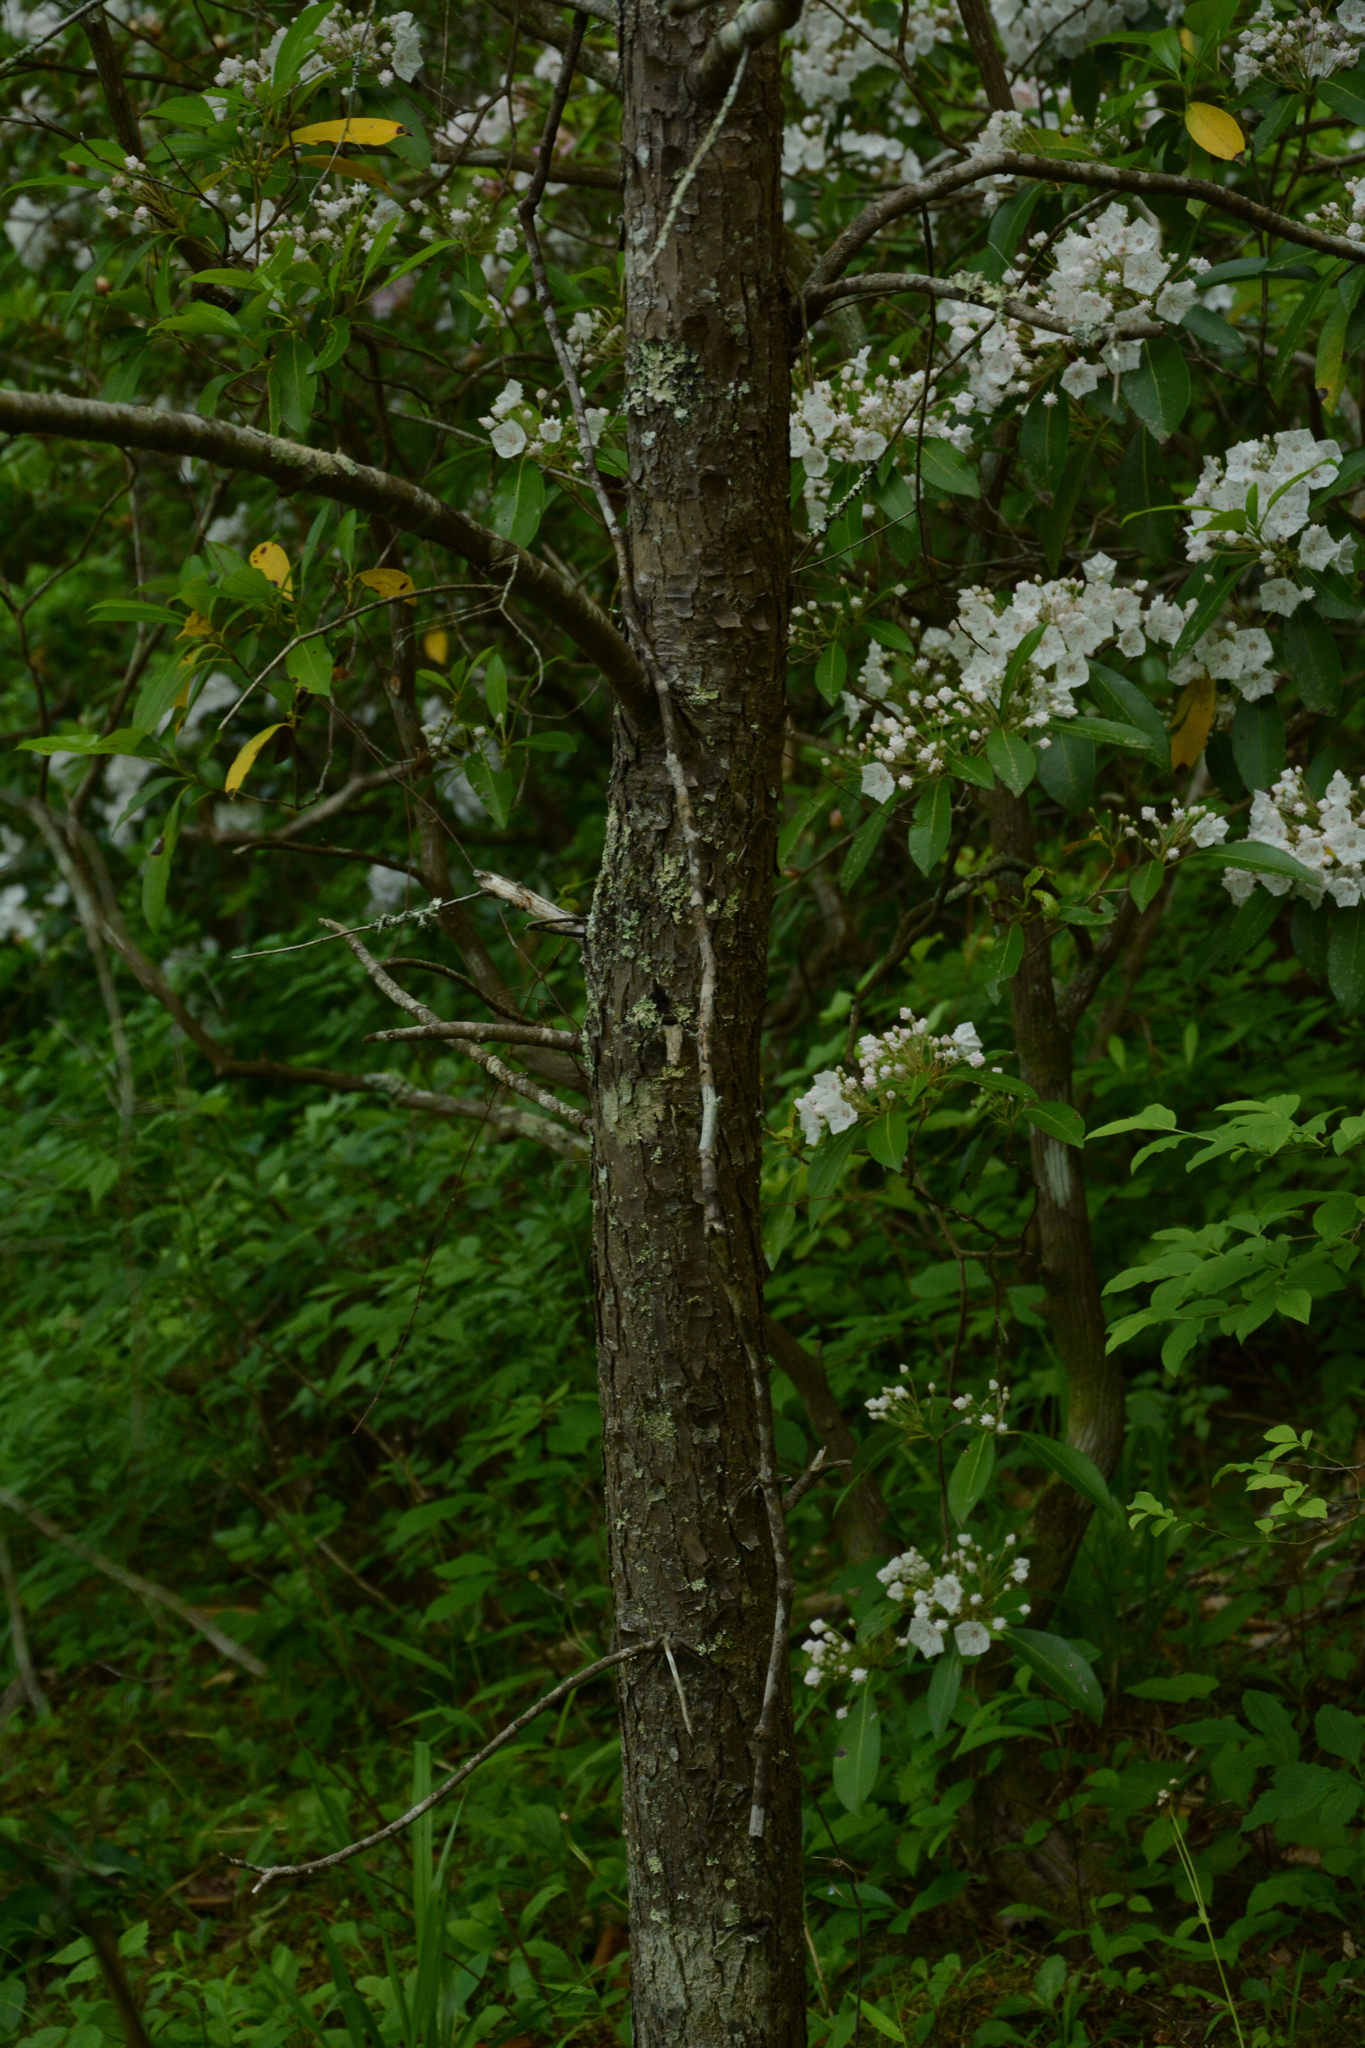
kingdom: Plantae
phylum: Tracheophyta
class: Pinopsida
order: Pinales
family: Pinaceae
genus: Tsuga
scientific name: Tsuga canadensis
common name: Eastern hemlock
